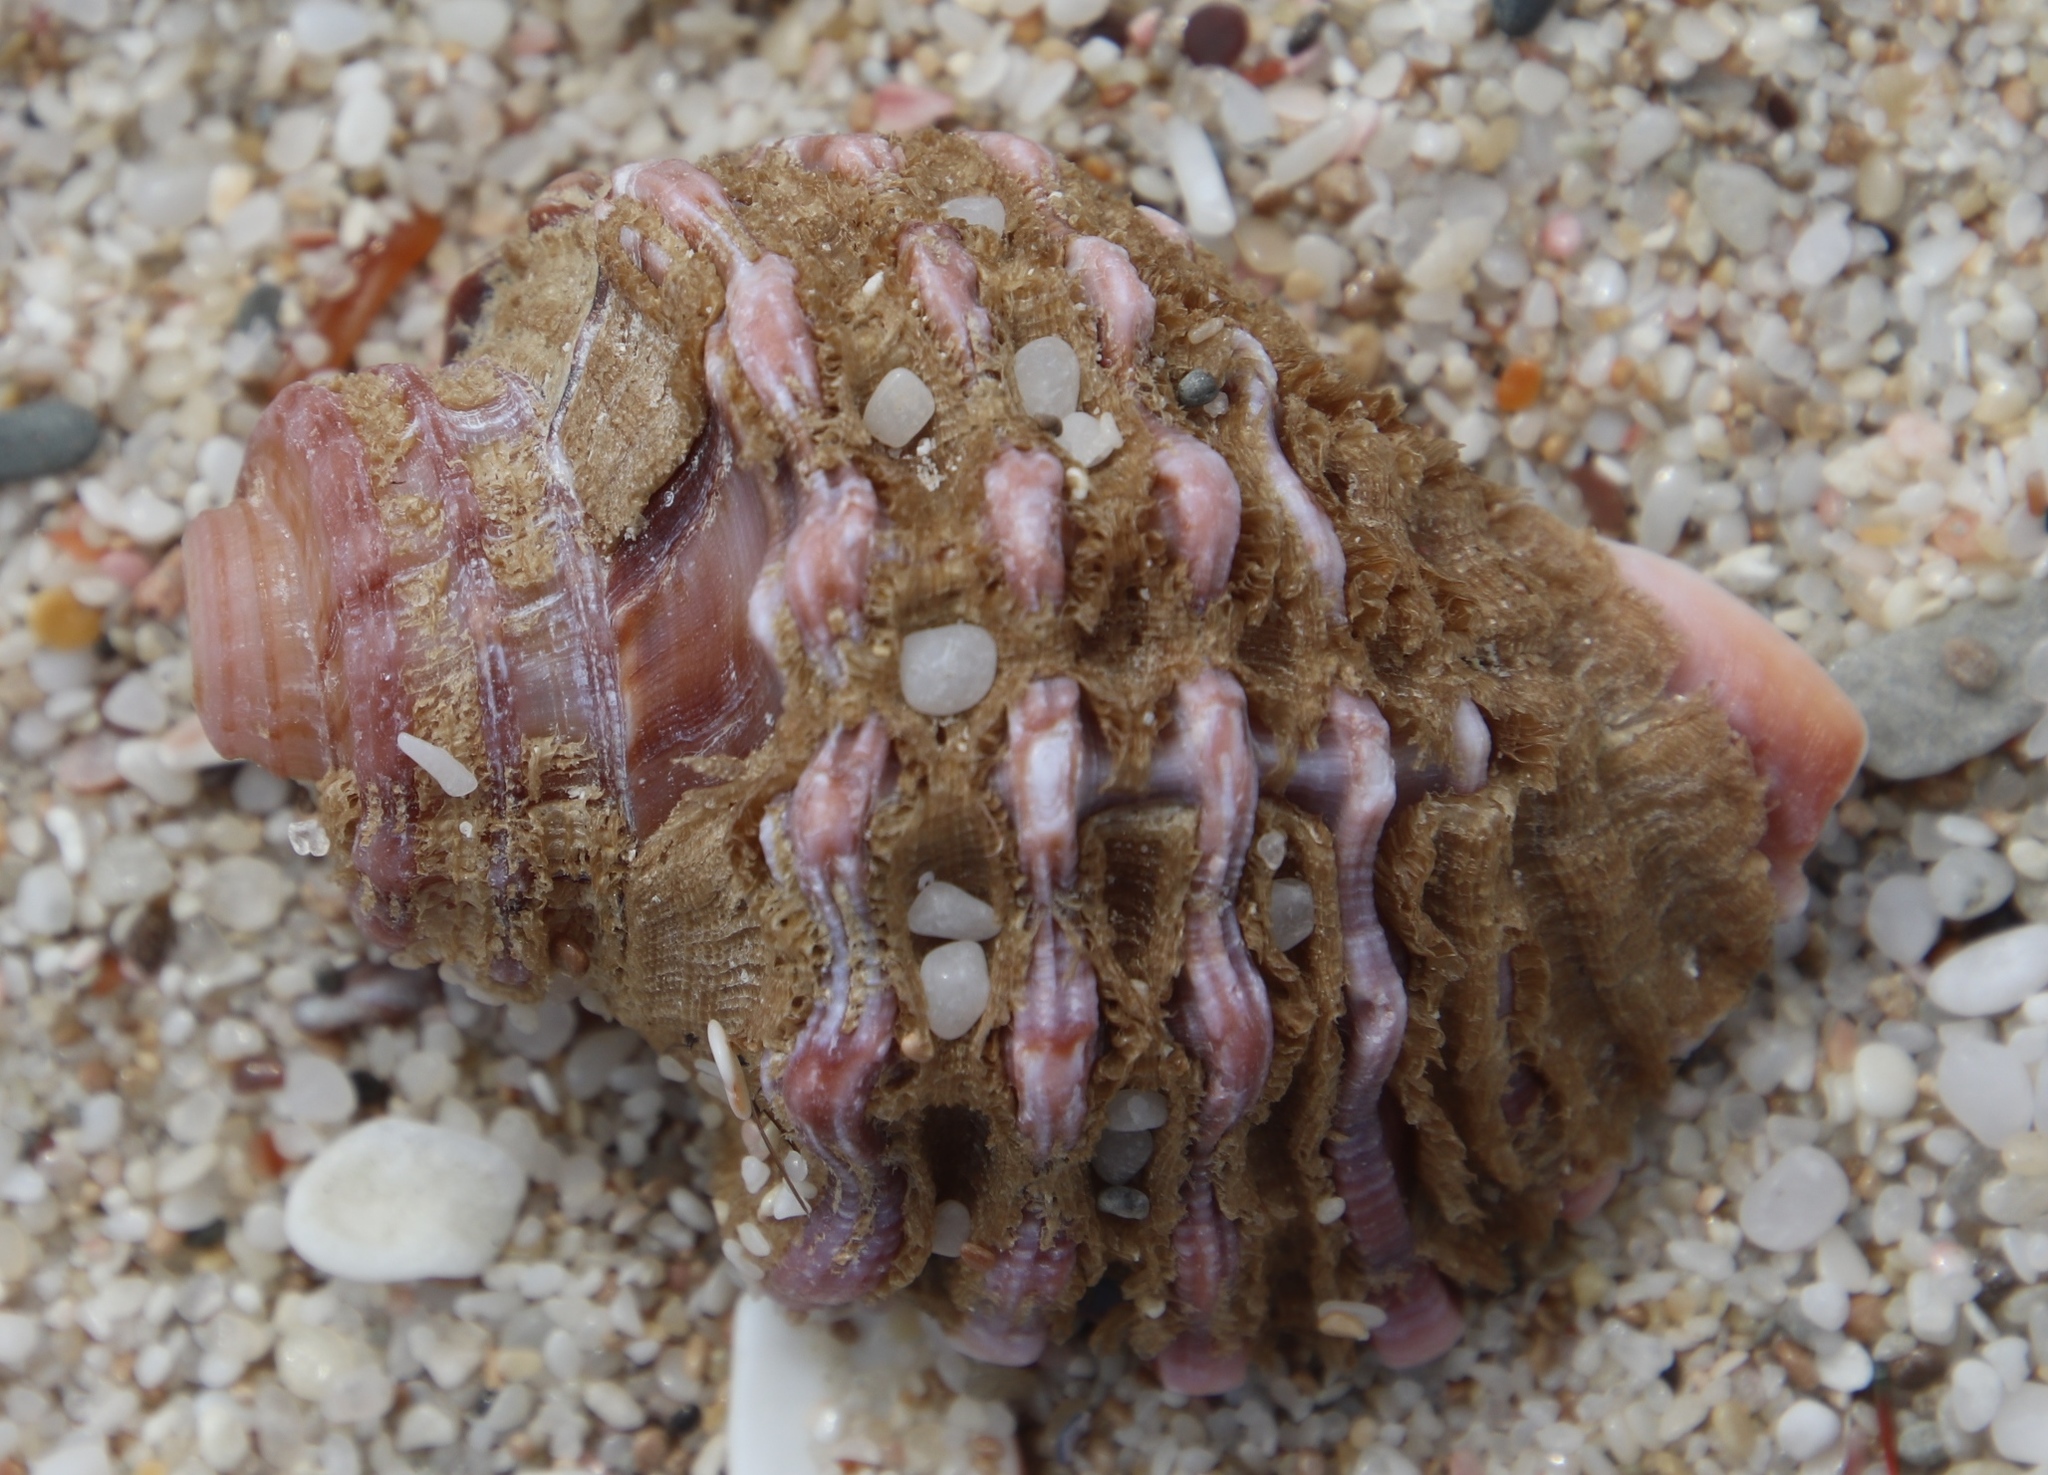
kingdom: Animalia
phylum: Mollusca
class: Gastropoda
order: Littorinimorpha
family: Cymatiidae
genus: Cabestana
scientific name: Cabestana africana
